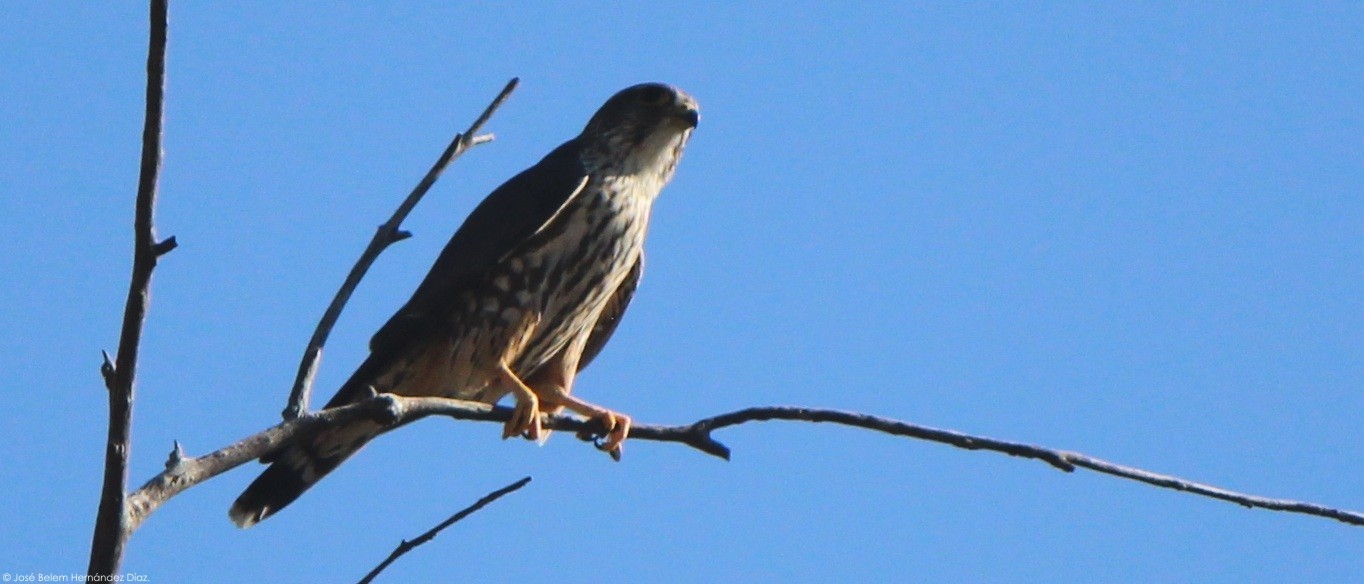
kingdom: Animalia
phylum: Chordata
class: Aves
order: Falconiformes
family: Falconidae
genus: Falco
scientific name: Falco columbarius
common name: Merlin
